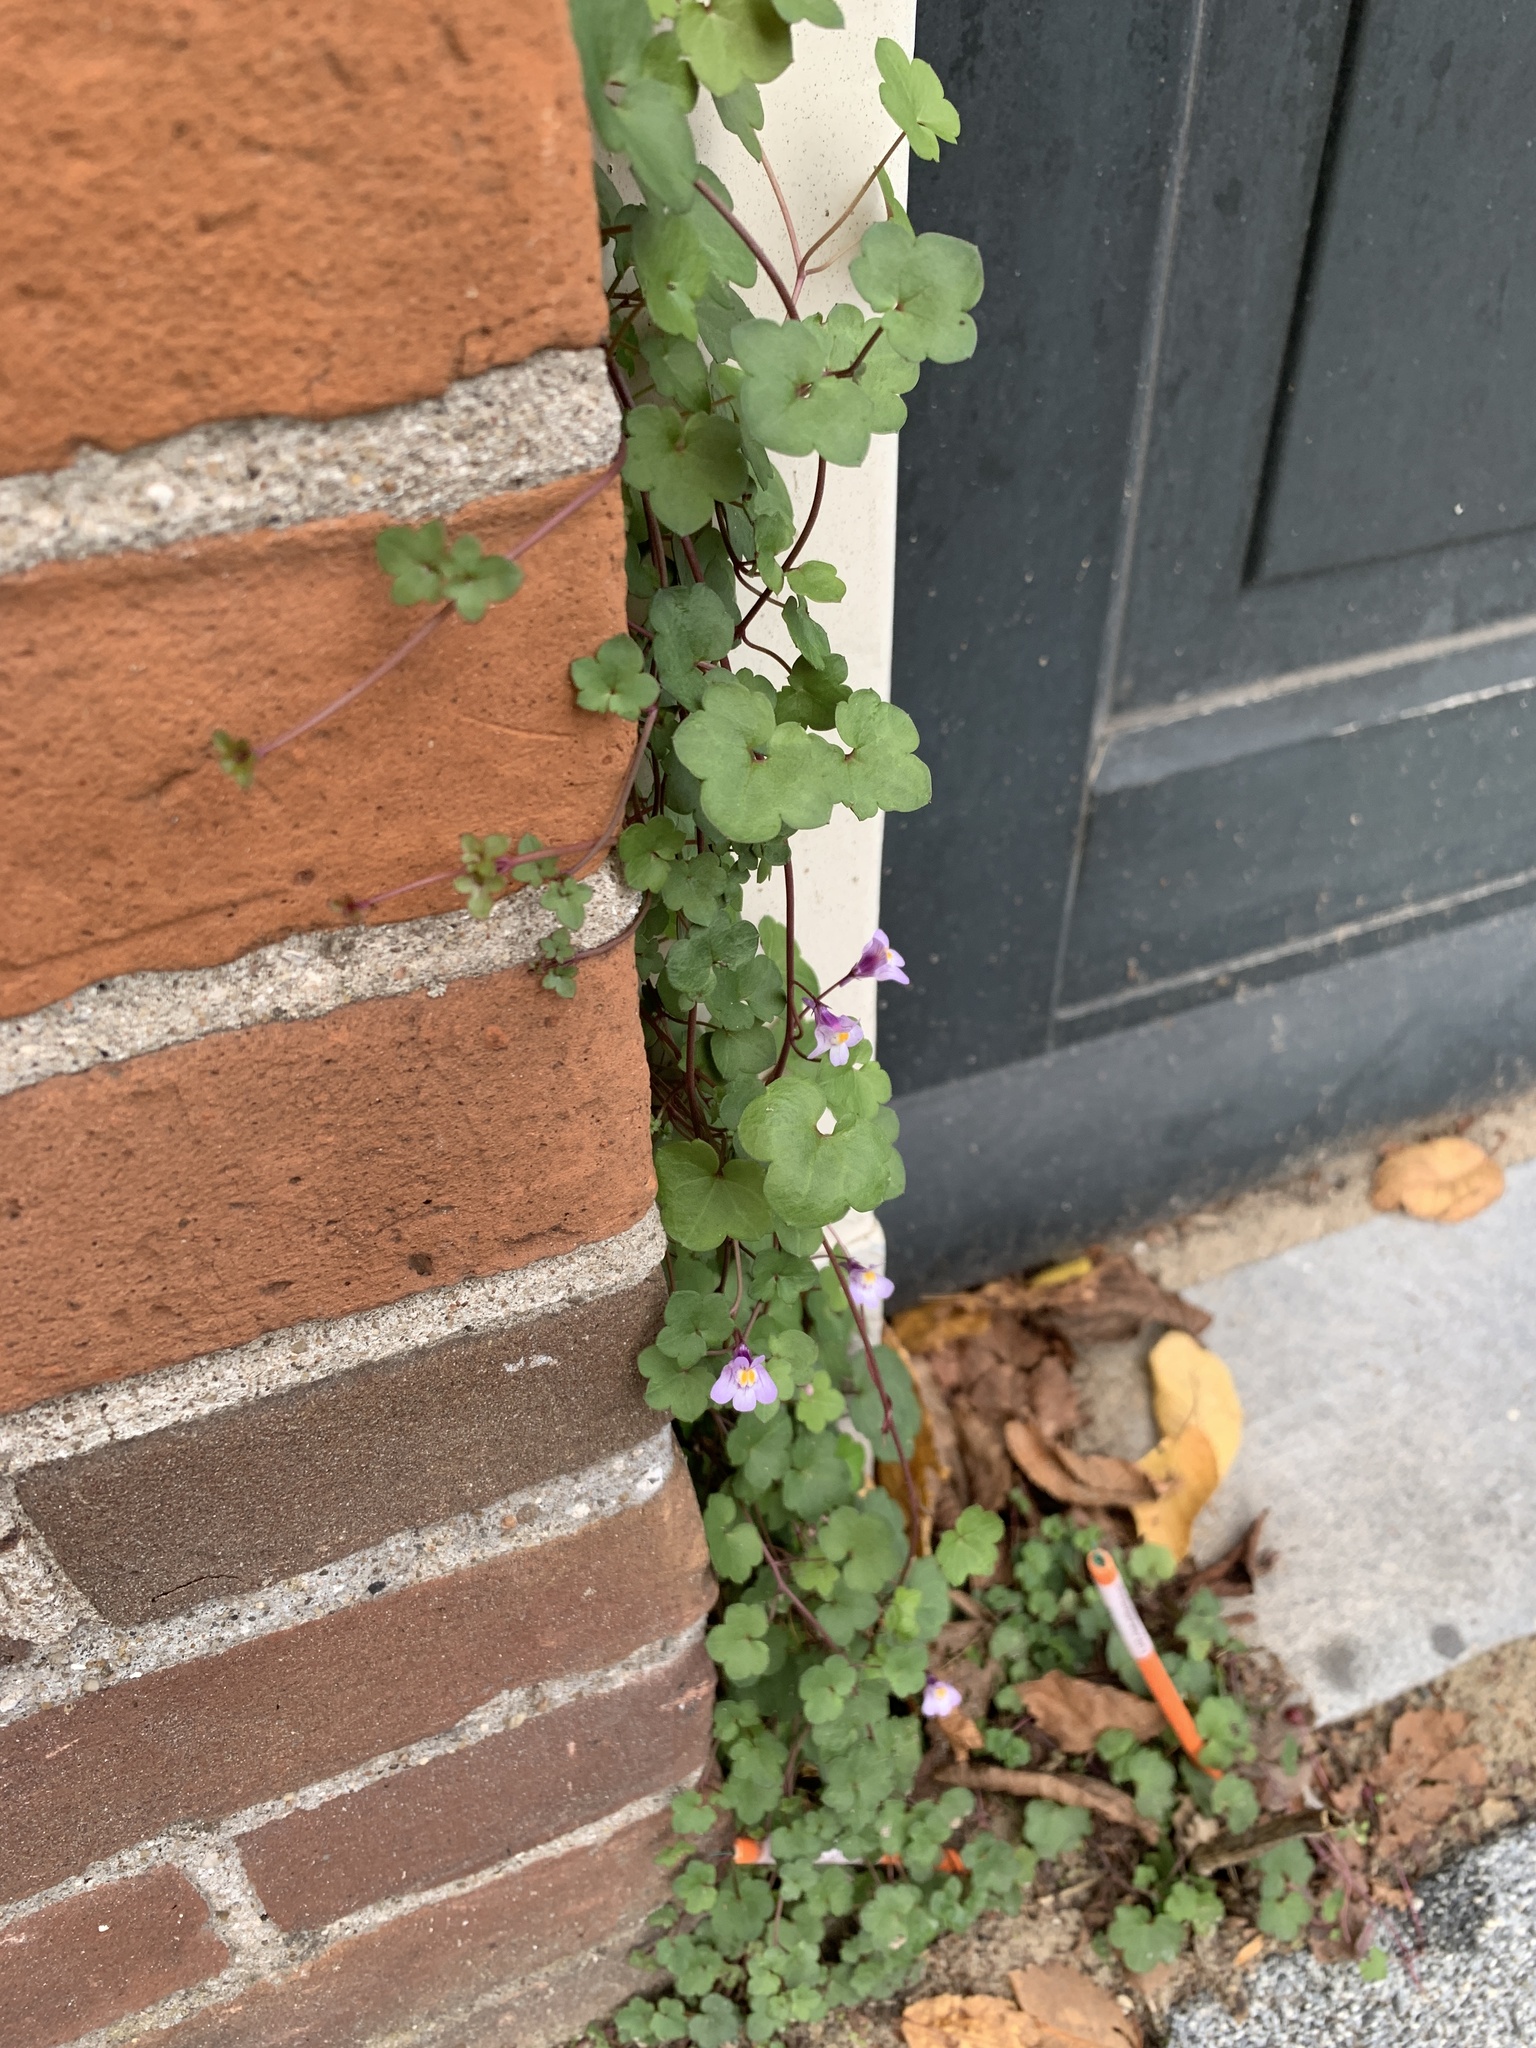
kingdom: Plantae
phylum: Tracheophyta
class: Magnoliopsida
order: Lamiales
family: Plantaginaceae
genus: Cymbalaria
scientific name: Cymbalaria muralis
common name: Ivy-leaved toadflax
